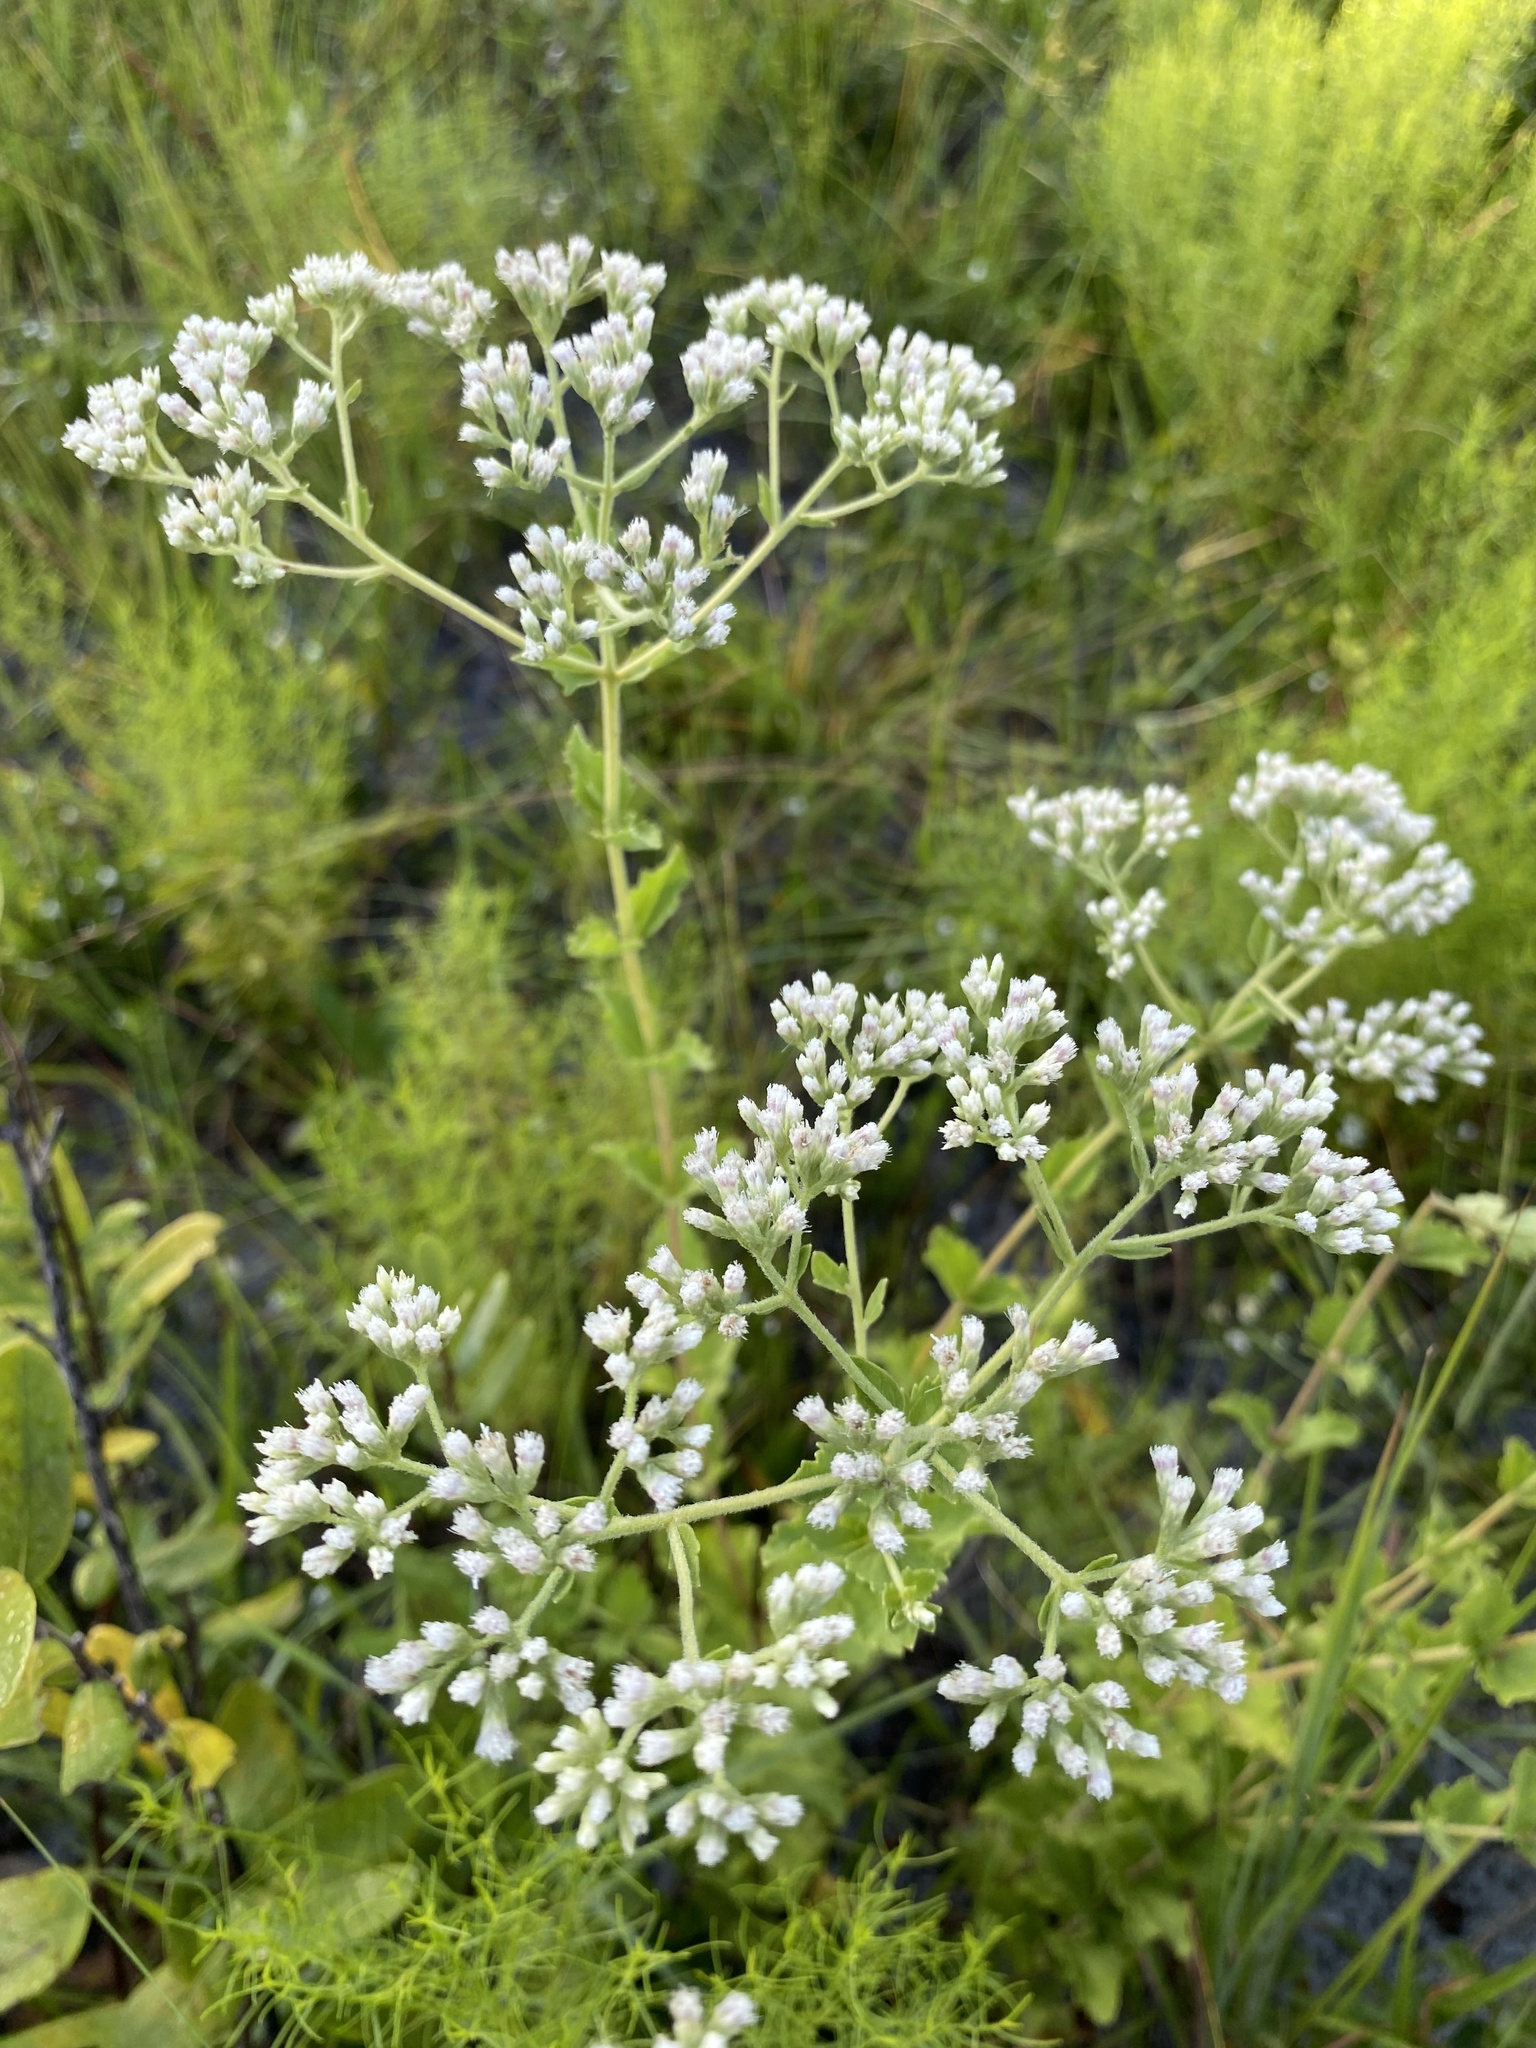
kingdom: Plantae
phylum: Tracheophyta
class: Magnoliopsida
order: Asterales
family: Asteraceae
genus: Eupatorium
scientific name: Eupatorium rotundifolium
